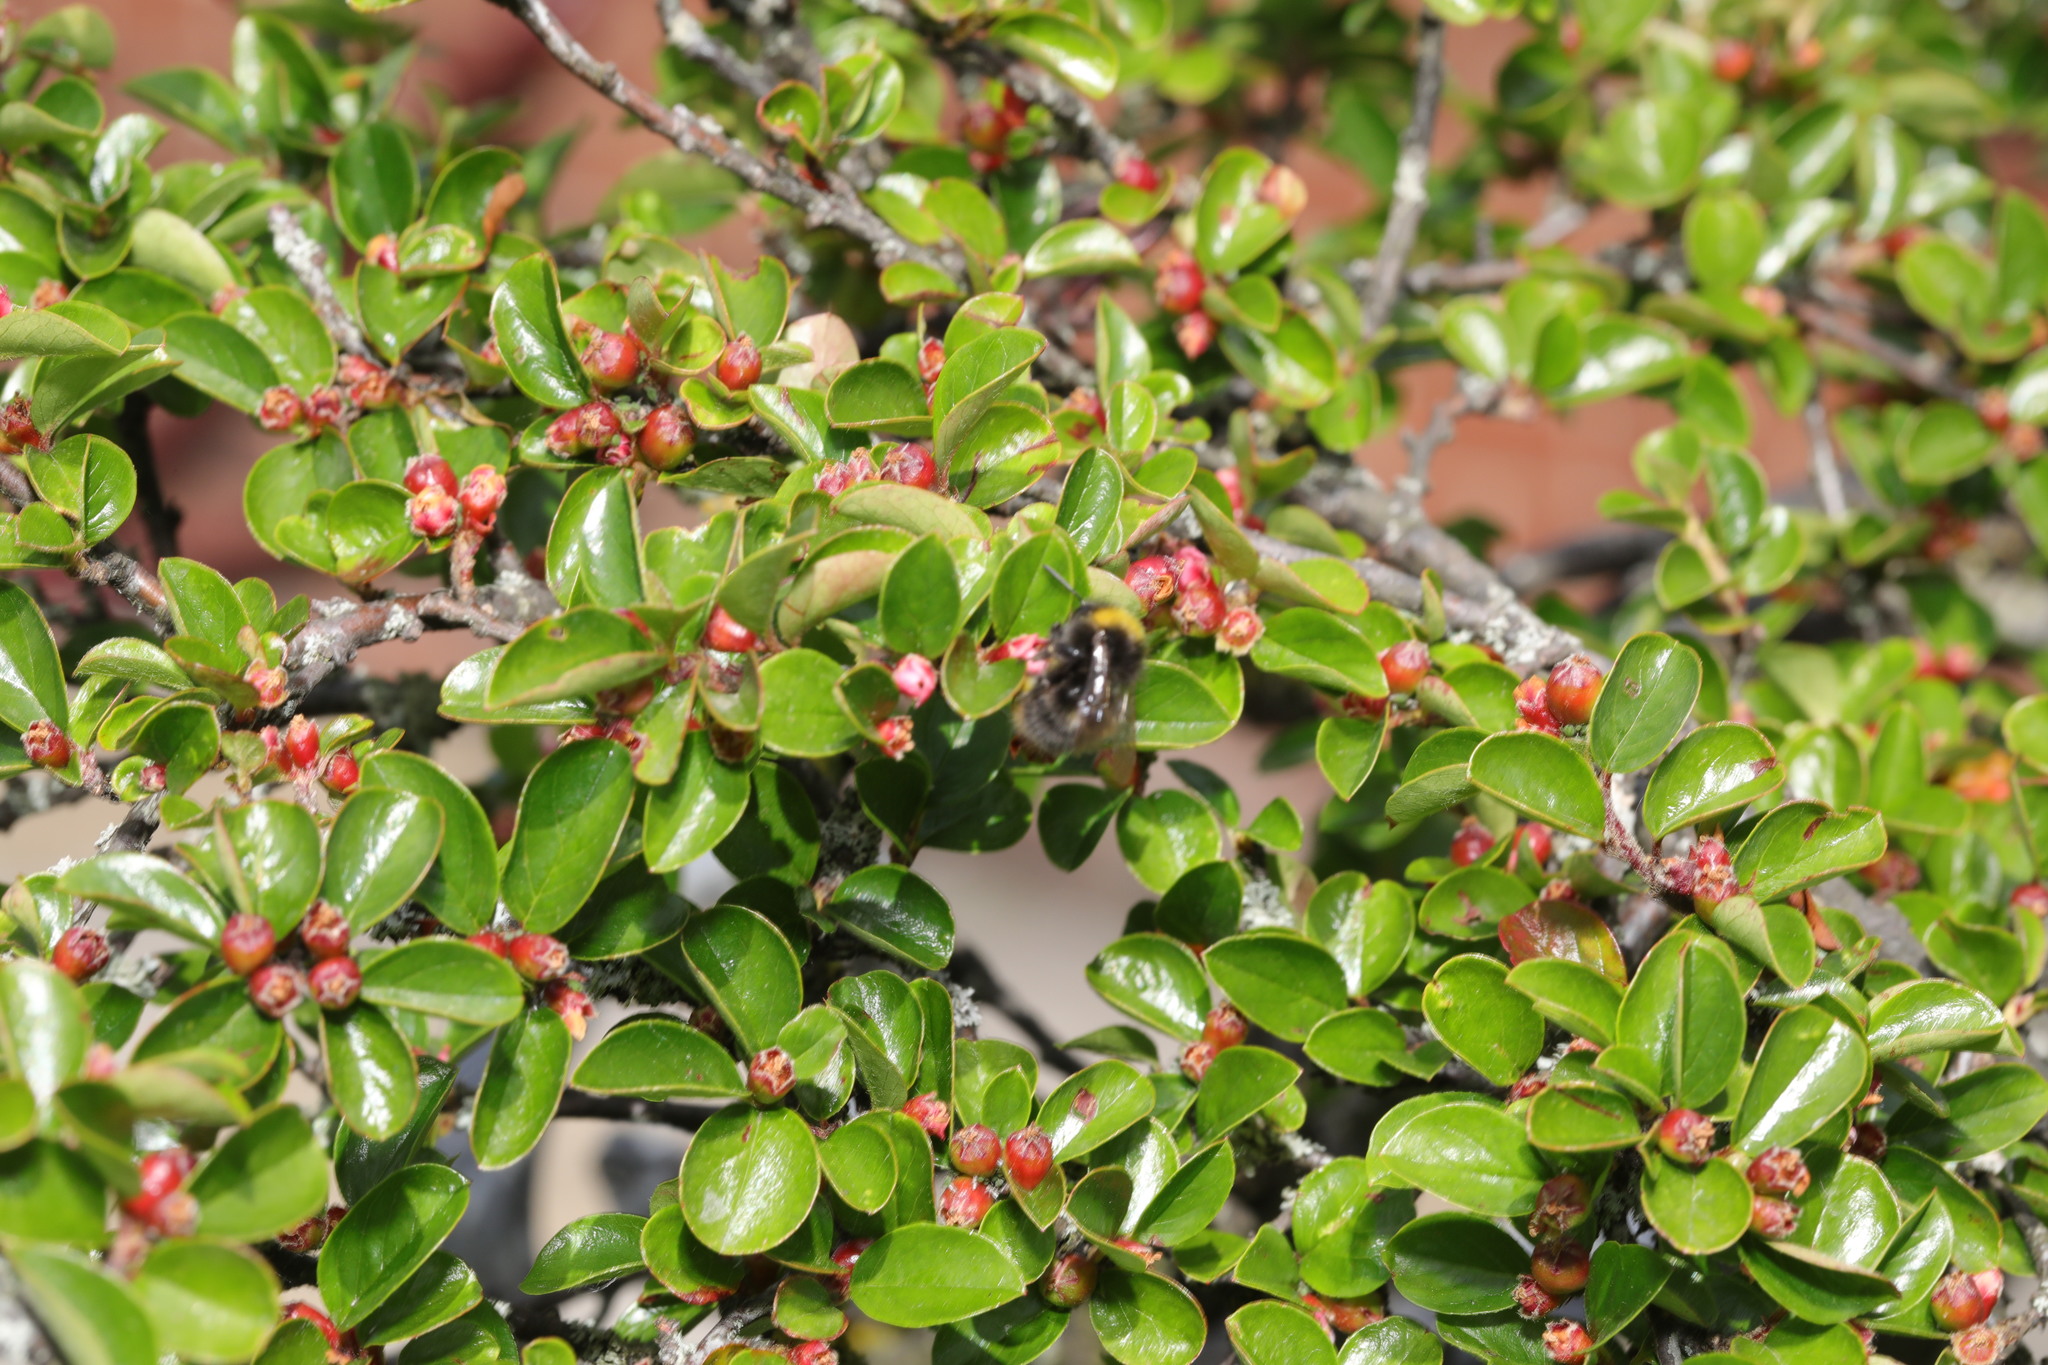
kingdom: Animalia
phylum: Arthropoda
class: Insecta
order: Hymenoptera
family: Apidae
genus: Bombus
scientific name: Bombus pratorum
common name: Early humble-bee
